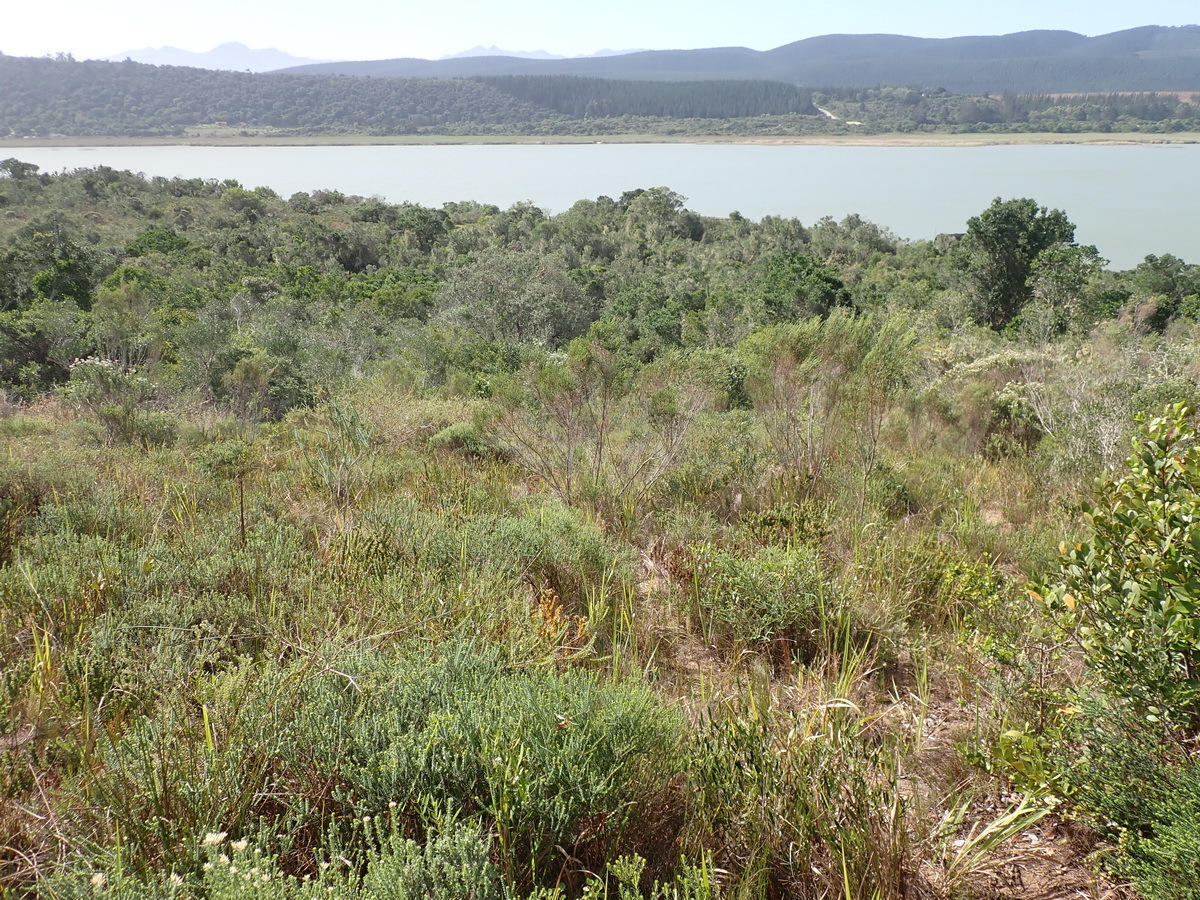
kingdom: Plantae
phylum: Tracheophyta
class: Magnoliopsida
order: Sapindales
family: Rutaceae
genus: Agathosma
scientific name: Agathosma muirii
